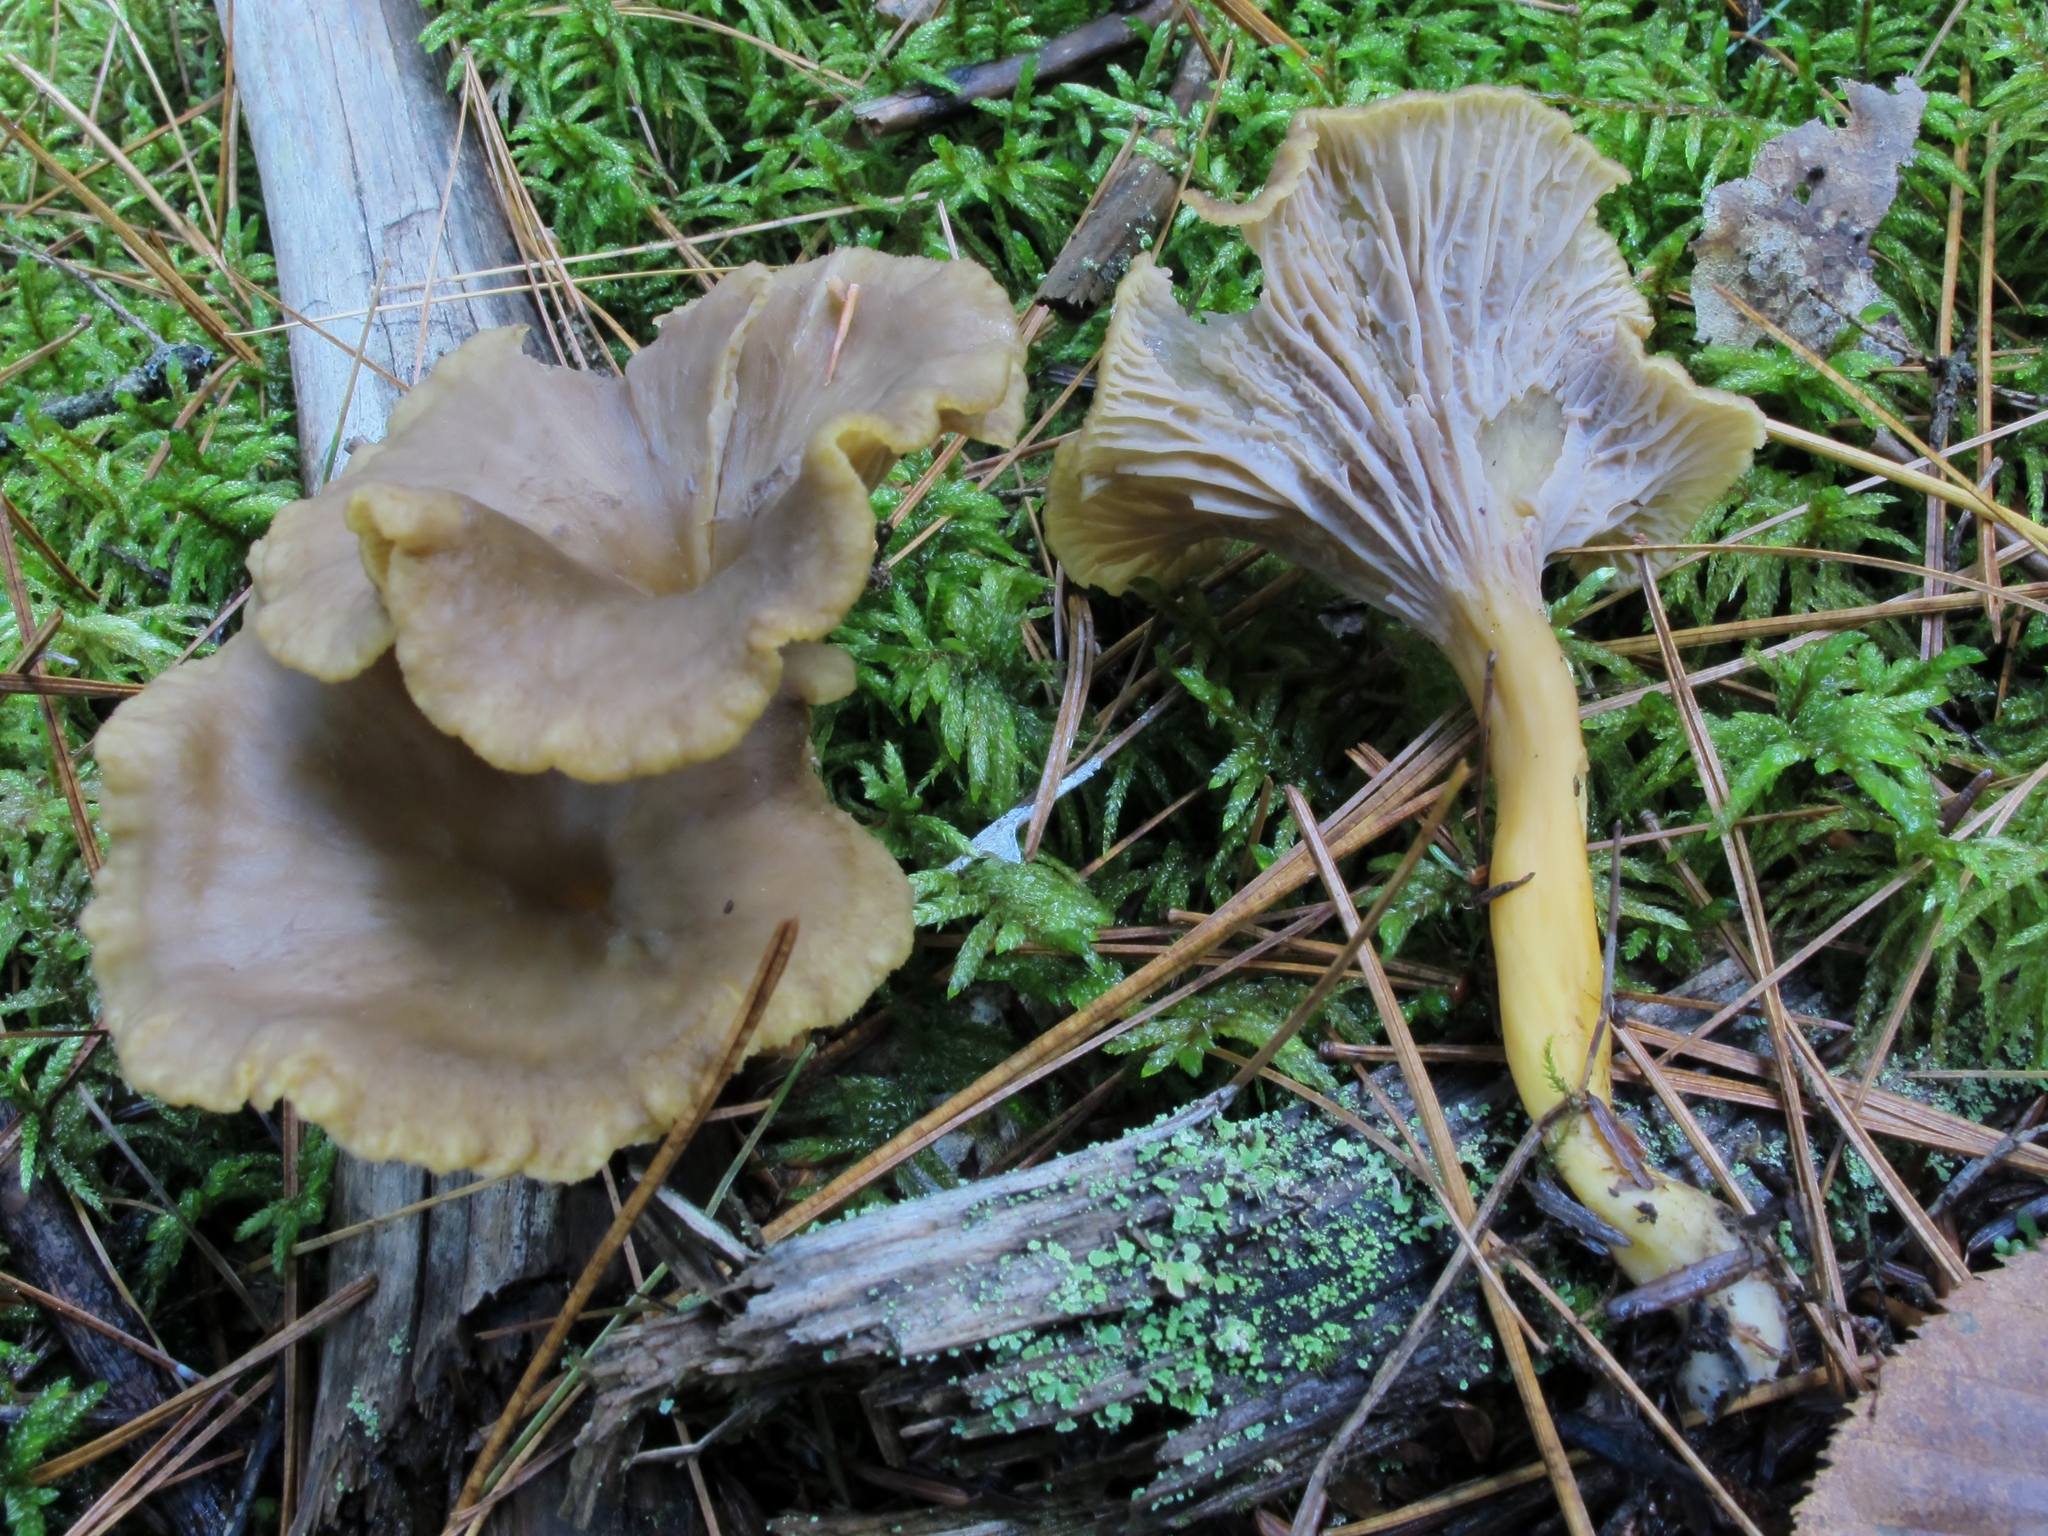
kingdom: Fungi
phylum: Basidiomycota
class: Agaricomycetes
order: Cantharellales
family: Hydnaceae
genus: Craterellus
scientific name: Craterellus tubaeformis
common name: Yellowfoot
